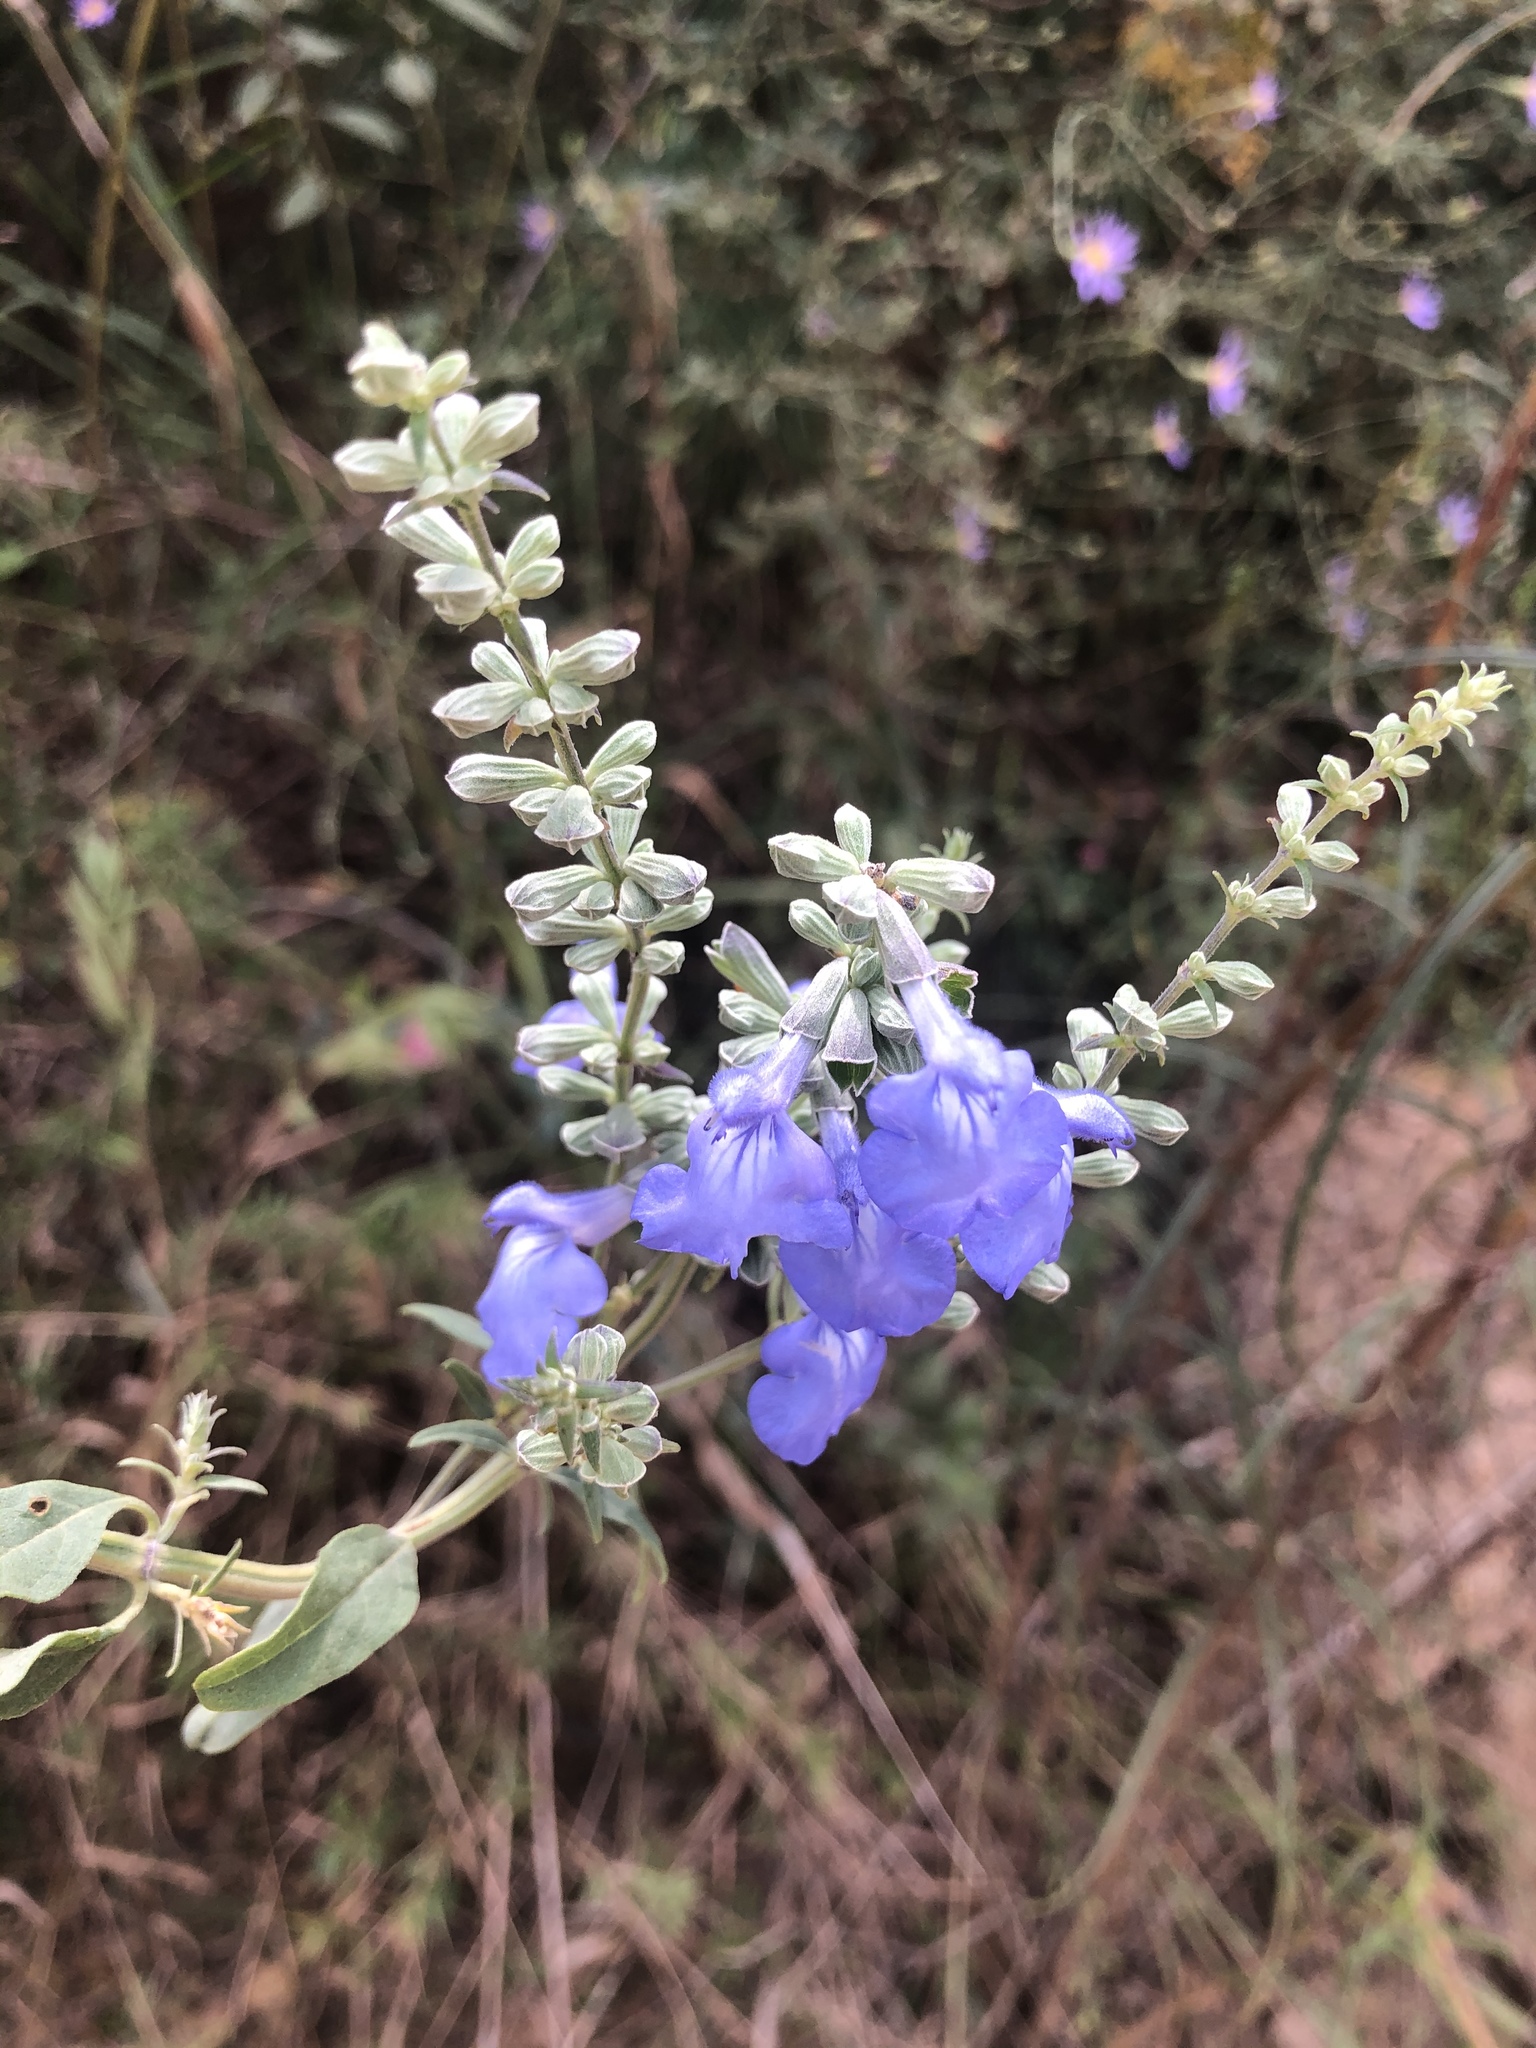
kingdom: Plantae
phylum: Tracheophyta
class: Magnoliopsida
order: Lamiales
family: Lamiaceae
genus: Salvia
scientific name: Salvia azurea
